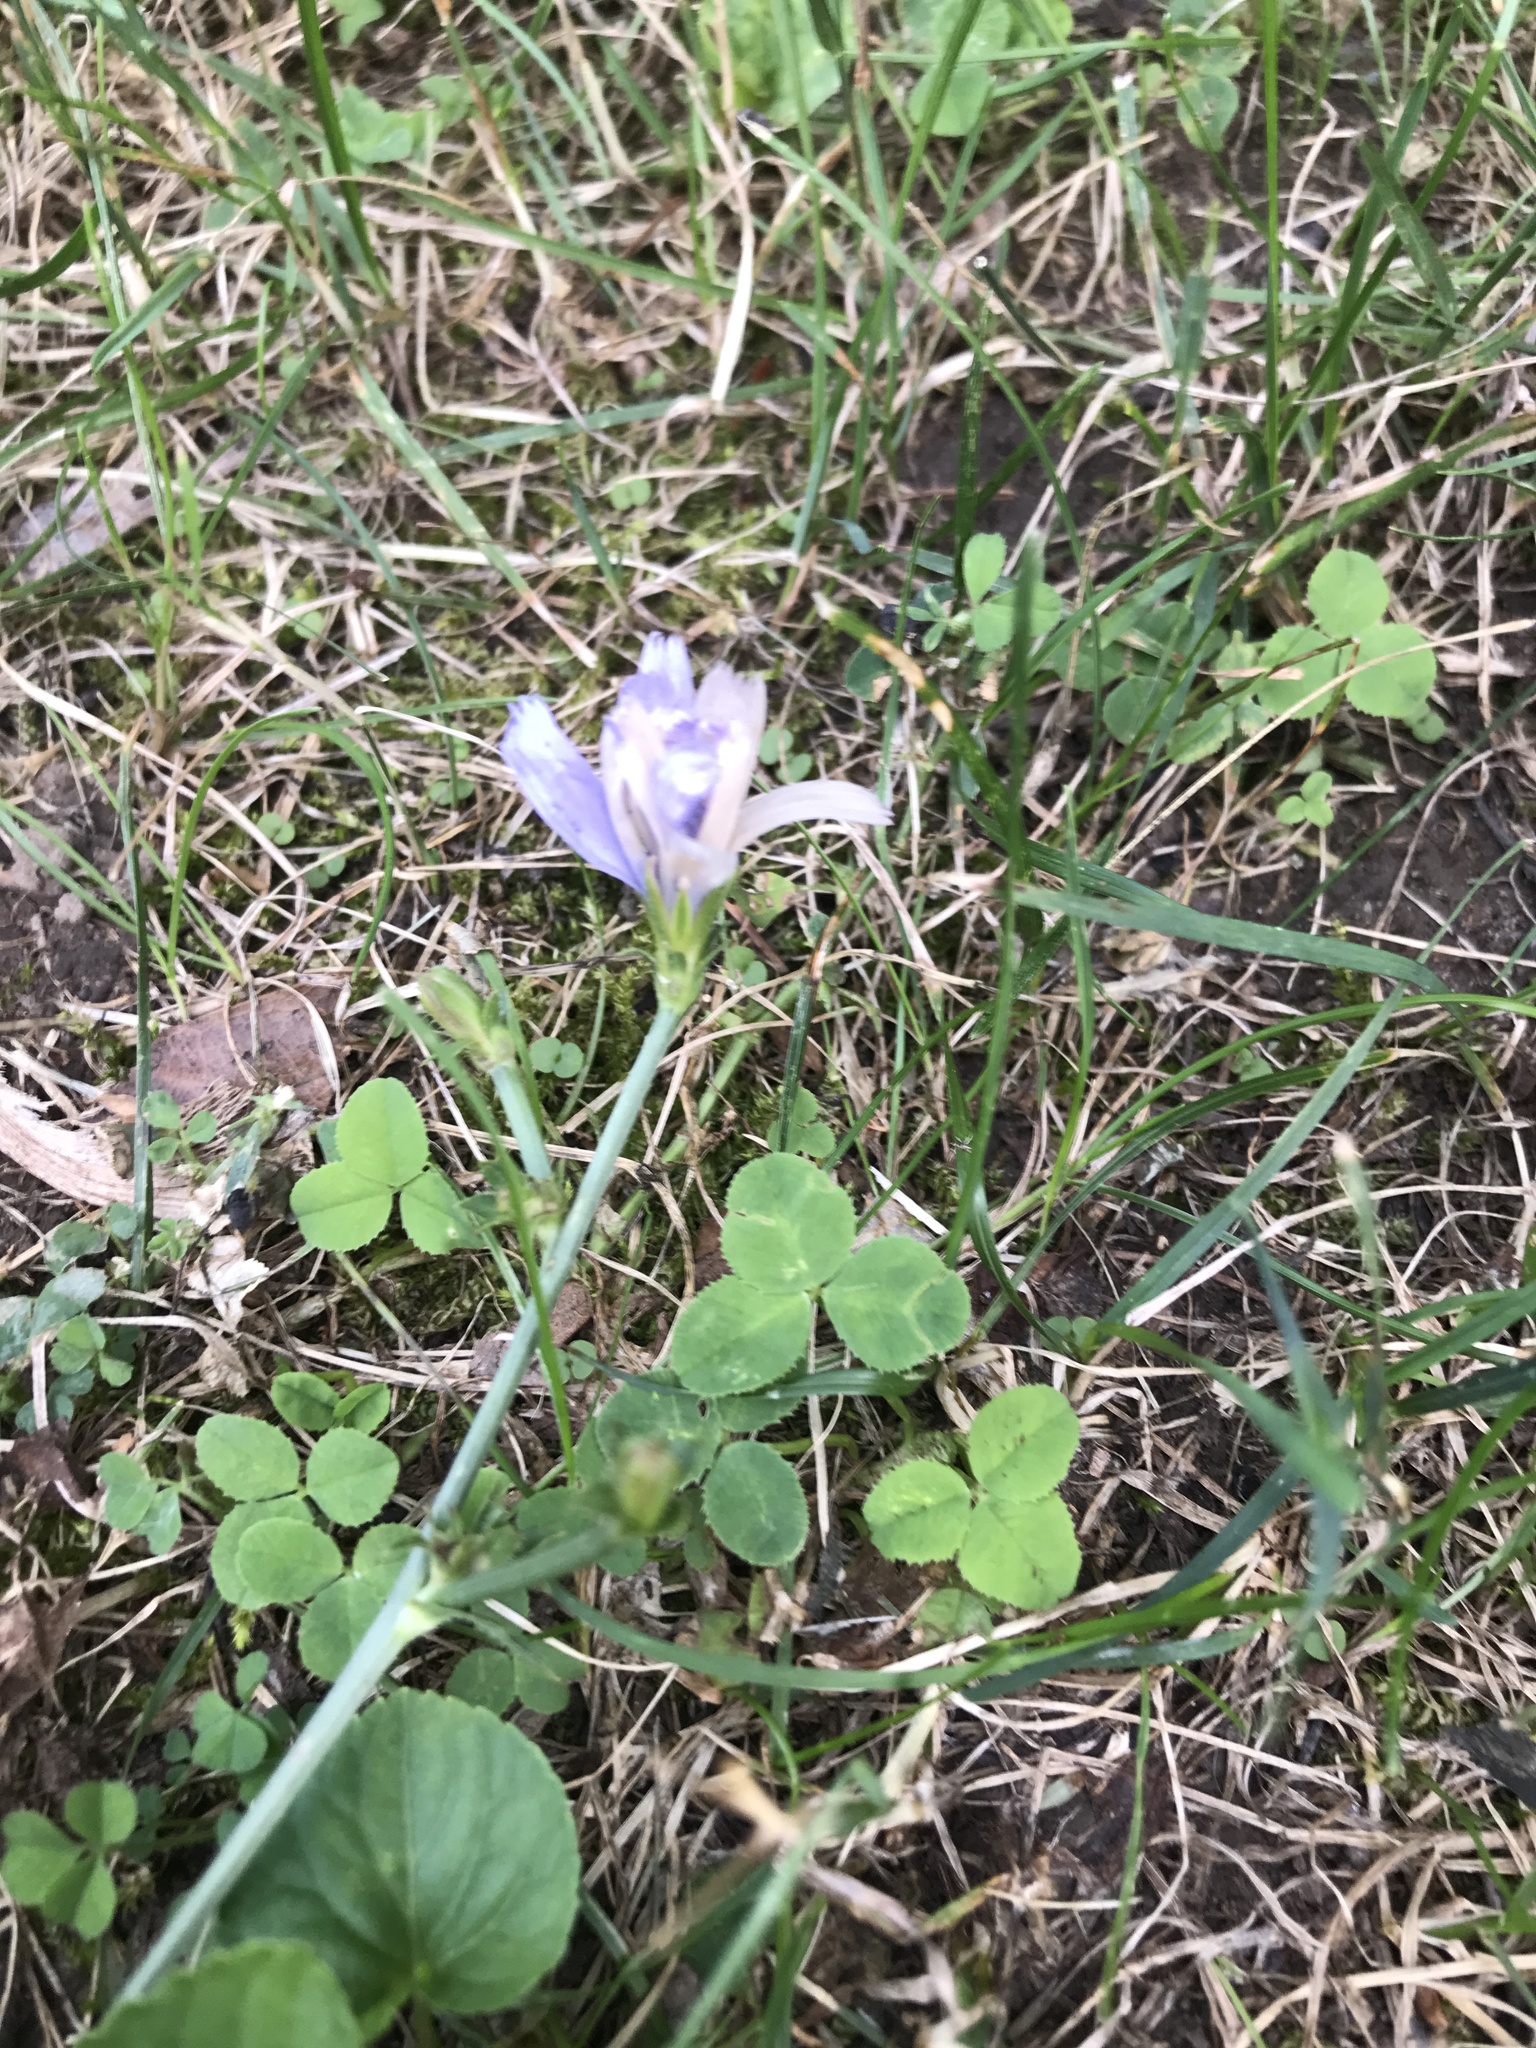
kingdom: Plantae
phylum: Tracheophyta
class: Magnoliopsida
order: Asterales
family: Asteraceae
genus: Cichorium
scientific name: Cichorium intybus
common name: Chicory
